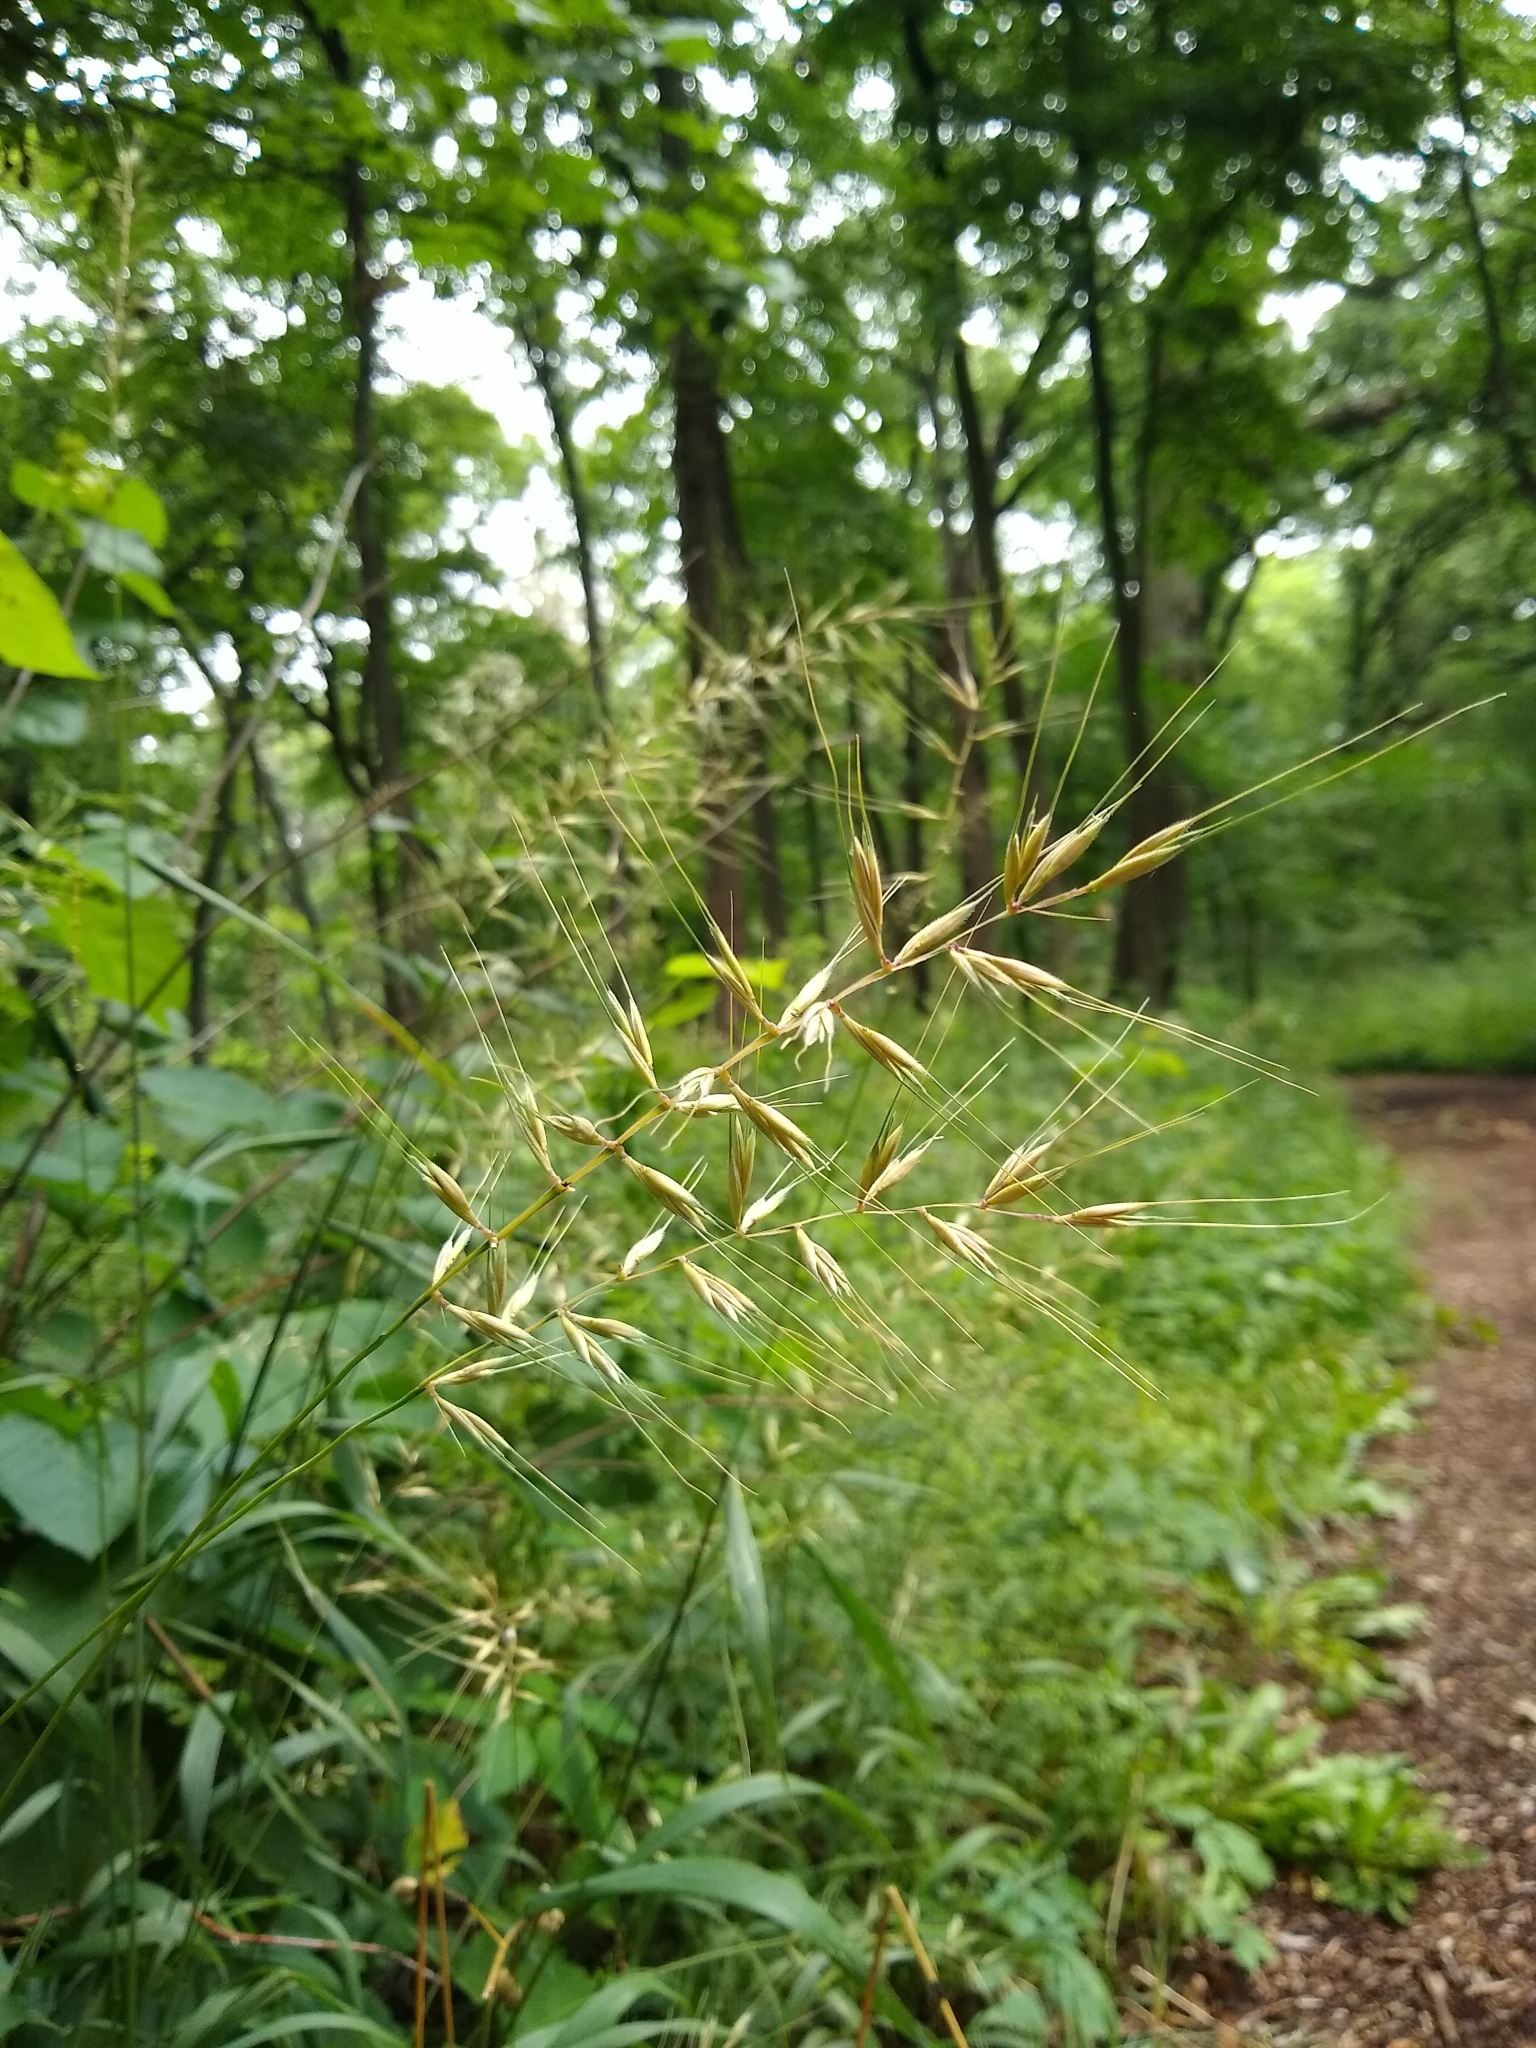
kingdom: Plantae
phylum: Tracheophyta
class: Liliopsida
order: Poales
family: Poaceae
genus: Elymus
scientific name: Elymus hystrix
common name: Bottlebrush grass
